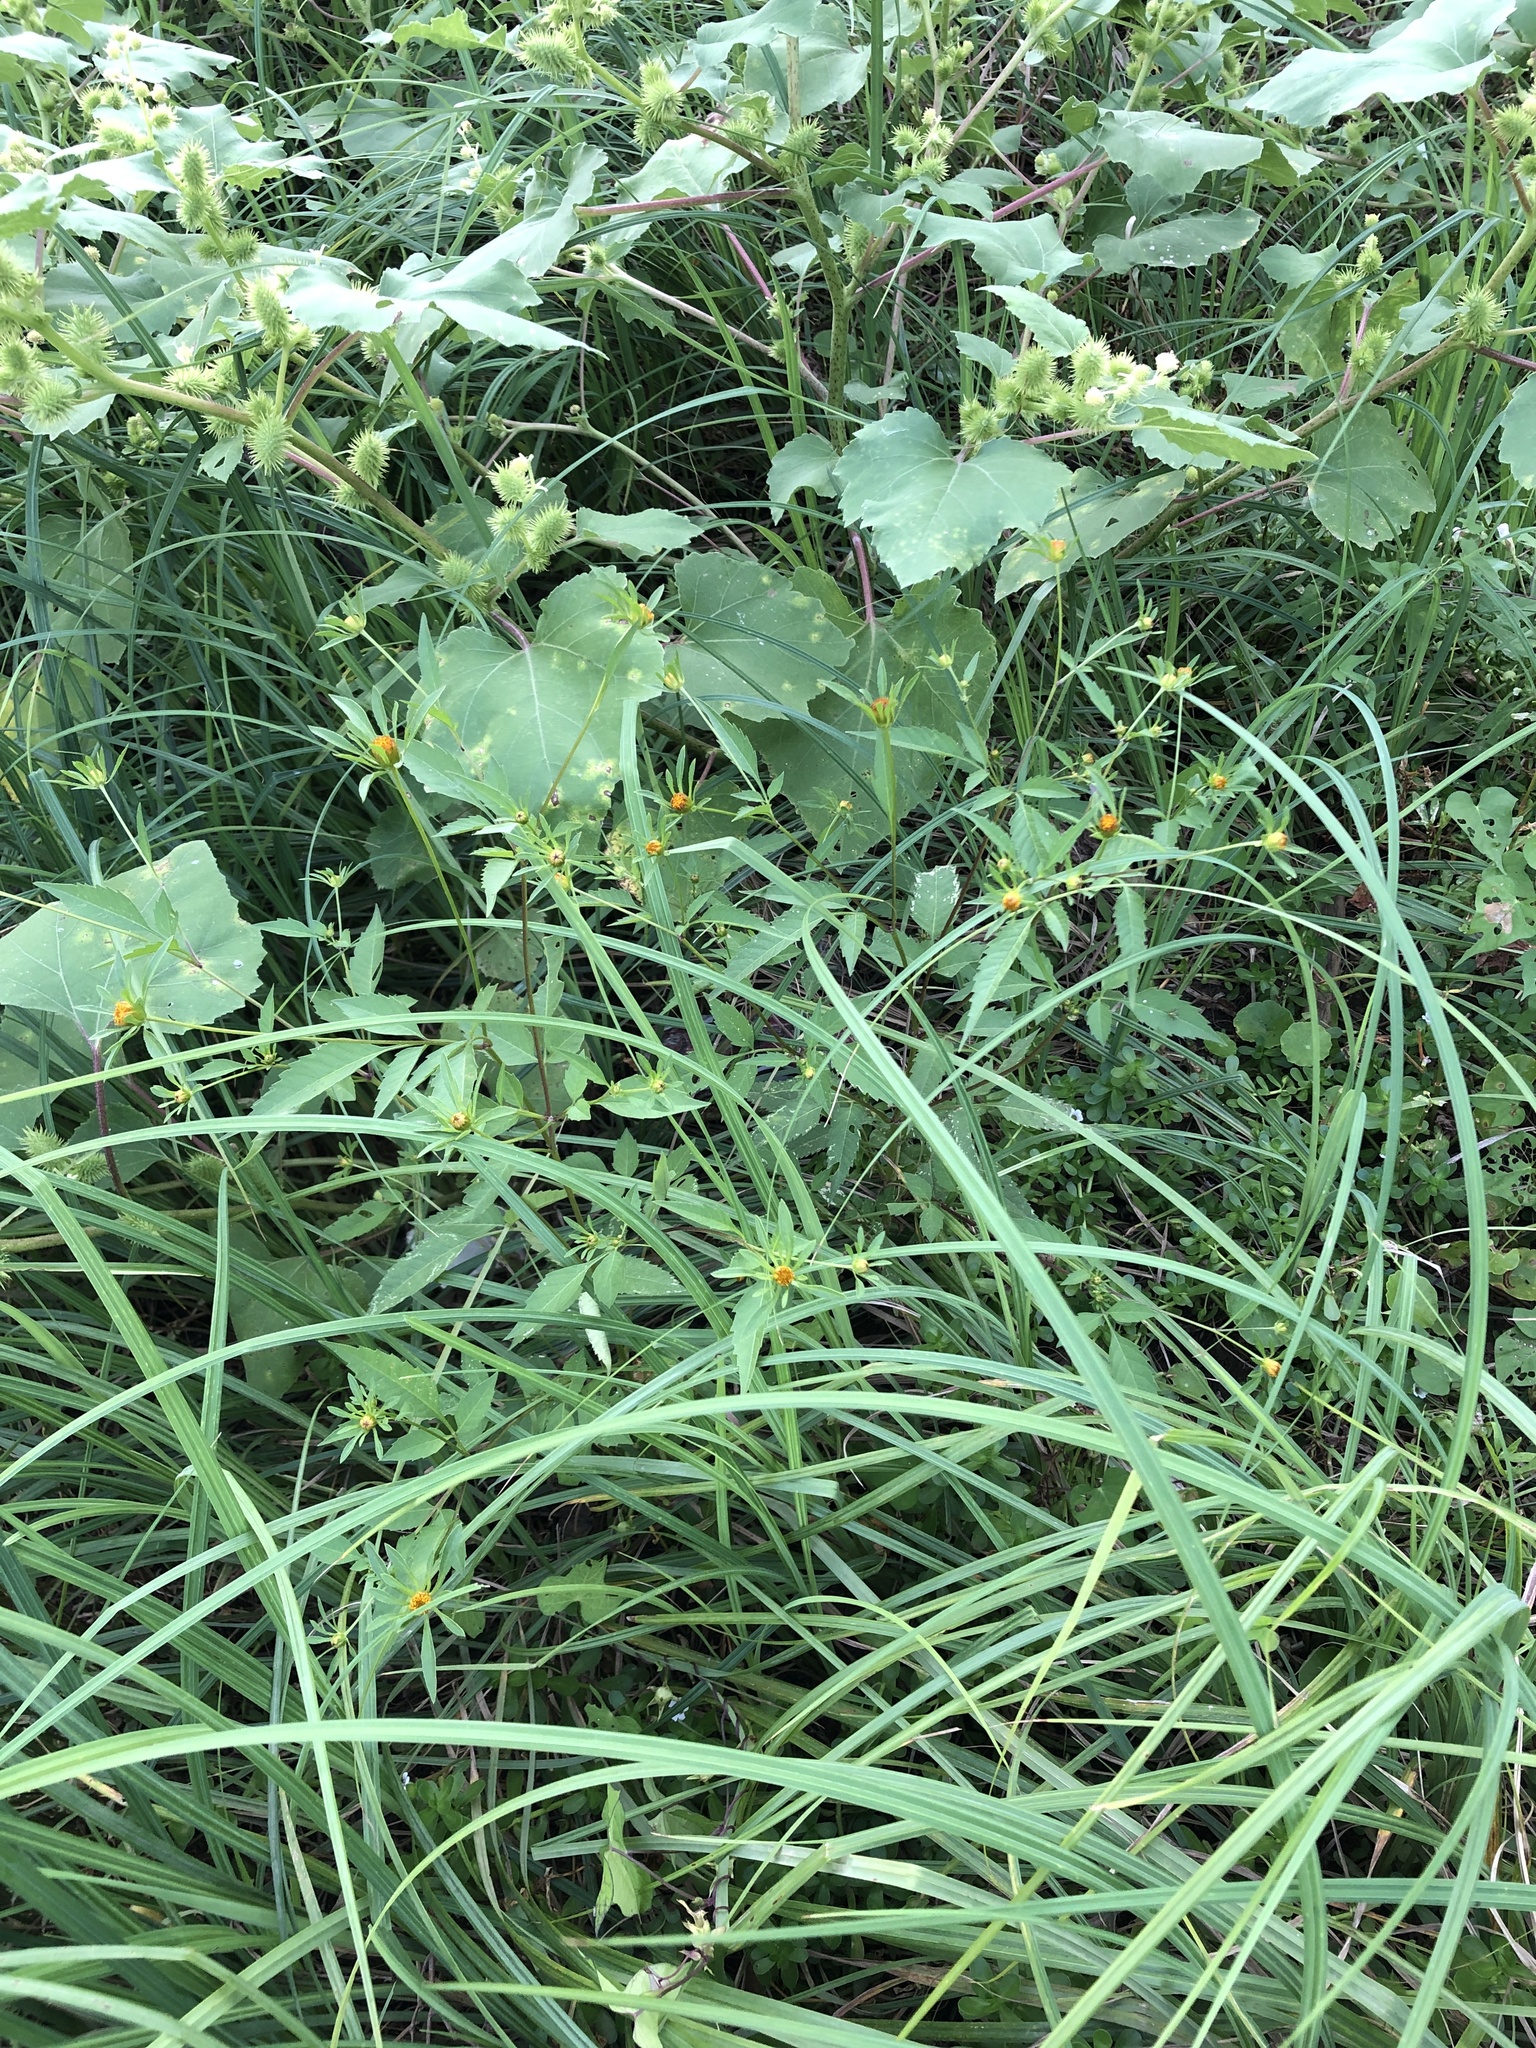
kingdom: Plantae
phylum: Tracheophyta
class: Magnoliopsida
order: Asterales
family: Asteraceae
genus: Bidens
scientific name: Bidens frondosa
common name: Beggarticks
